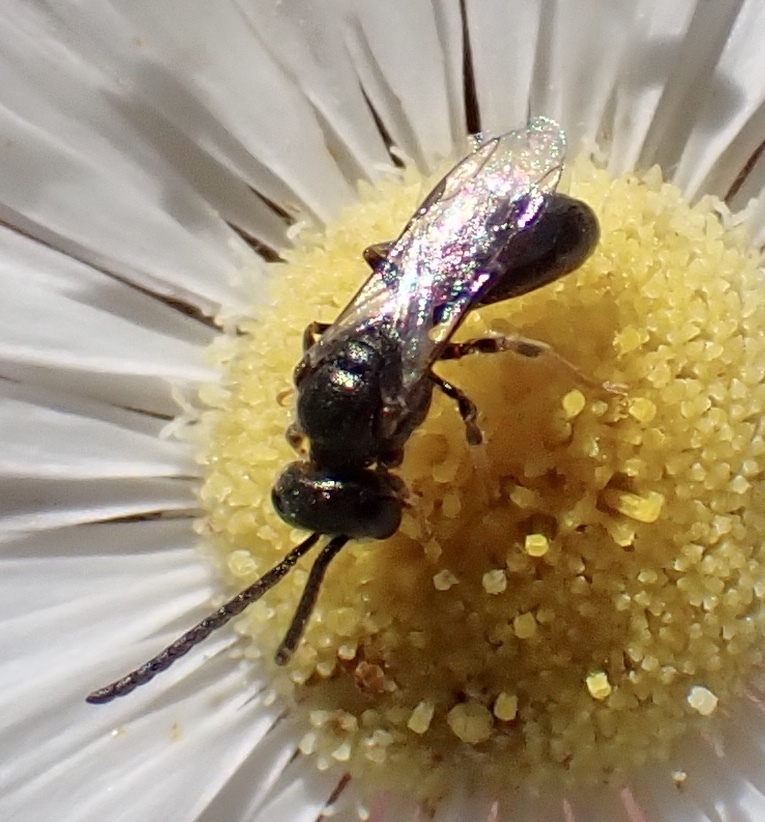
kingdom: Animalia
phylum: Arthropoda
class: Insecta
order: Hymenoptera
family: Halictidae
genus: Dialictus
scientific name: Dialictus
